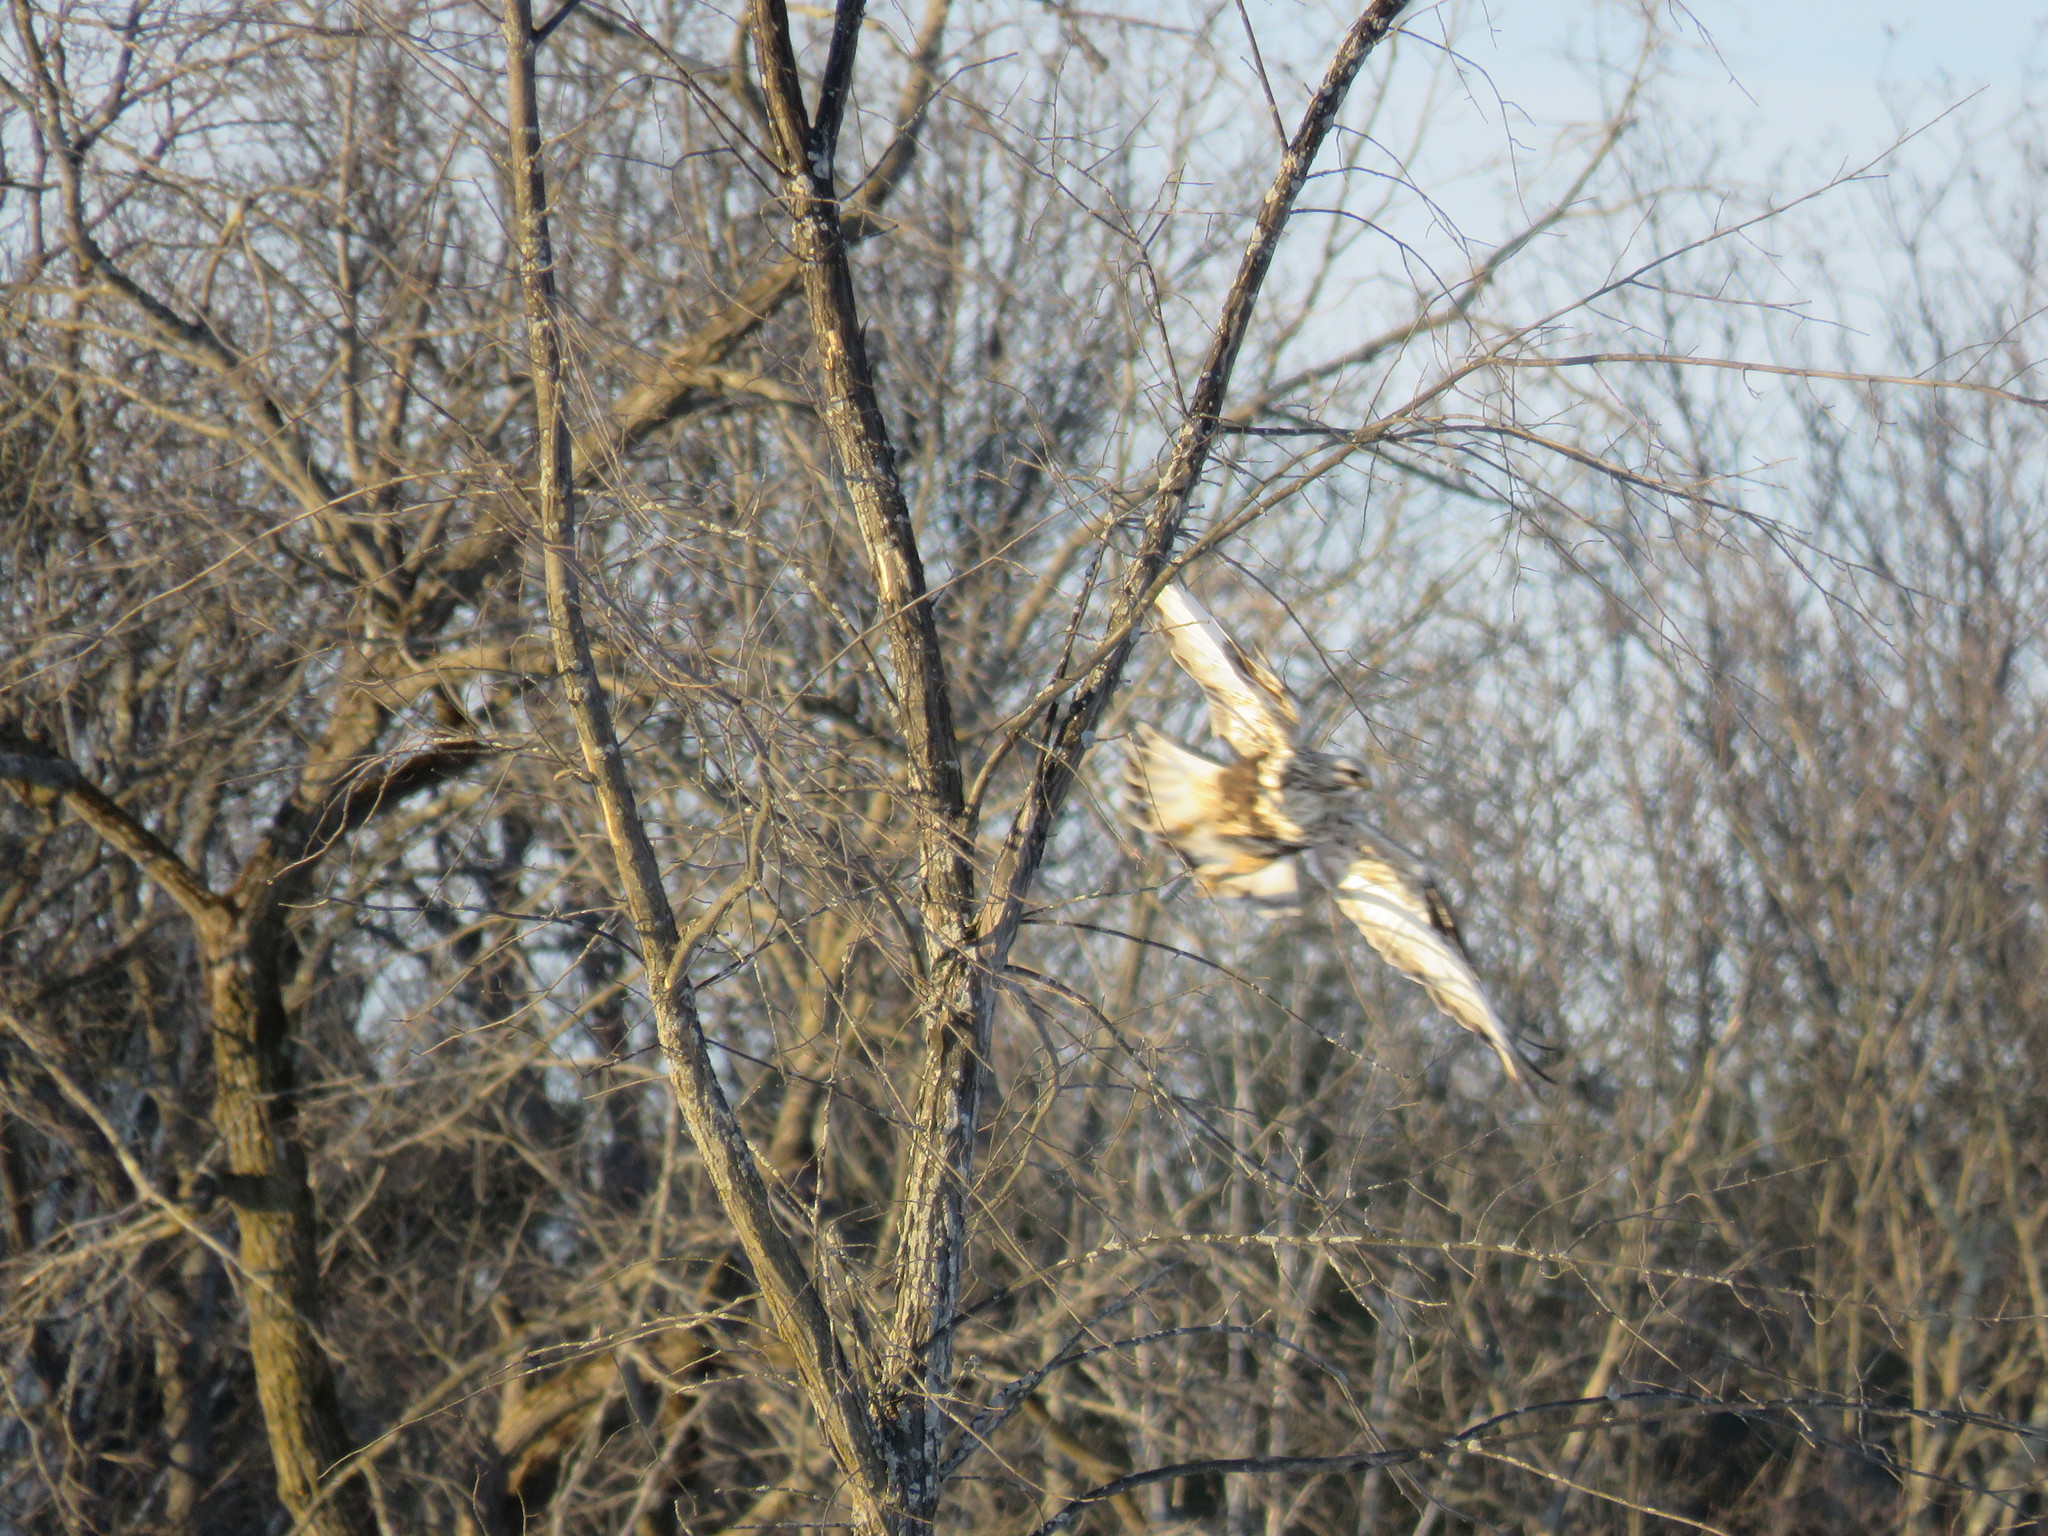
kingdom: Animalia
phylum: Chordata
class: Aves
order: Accipitriformes
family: Accipitridae
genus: Buteo
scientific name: Buteo lagopus
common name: Rough-legged buzzard
